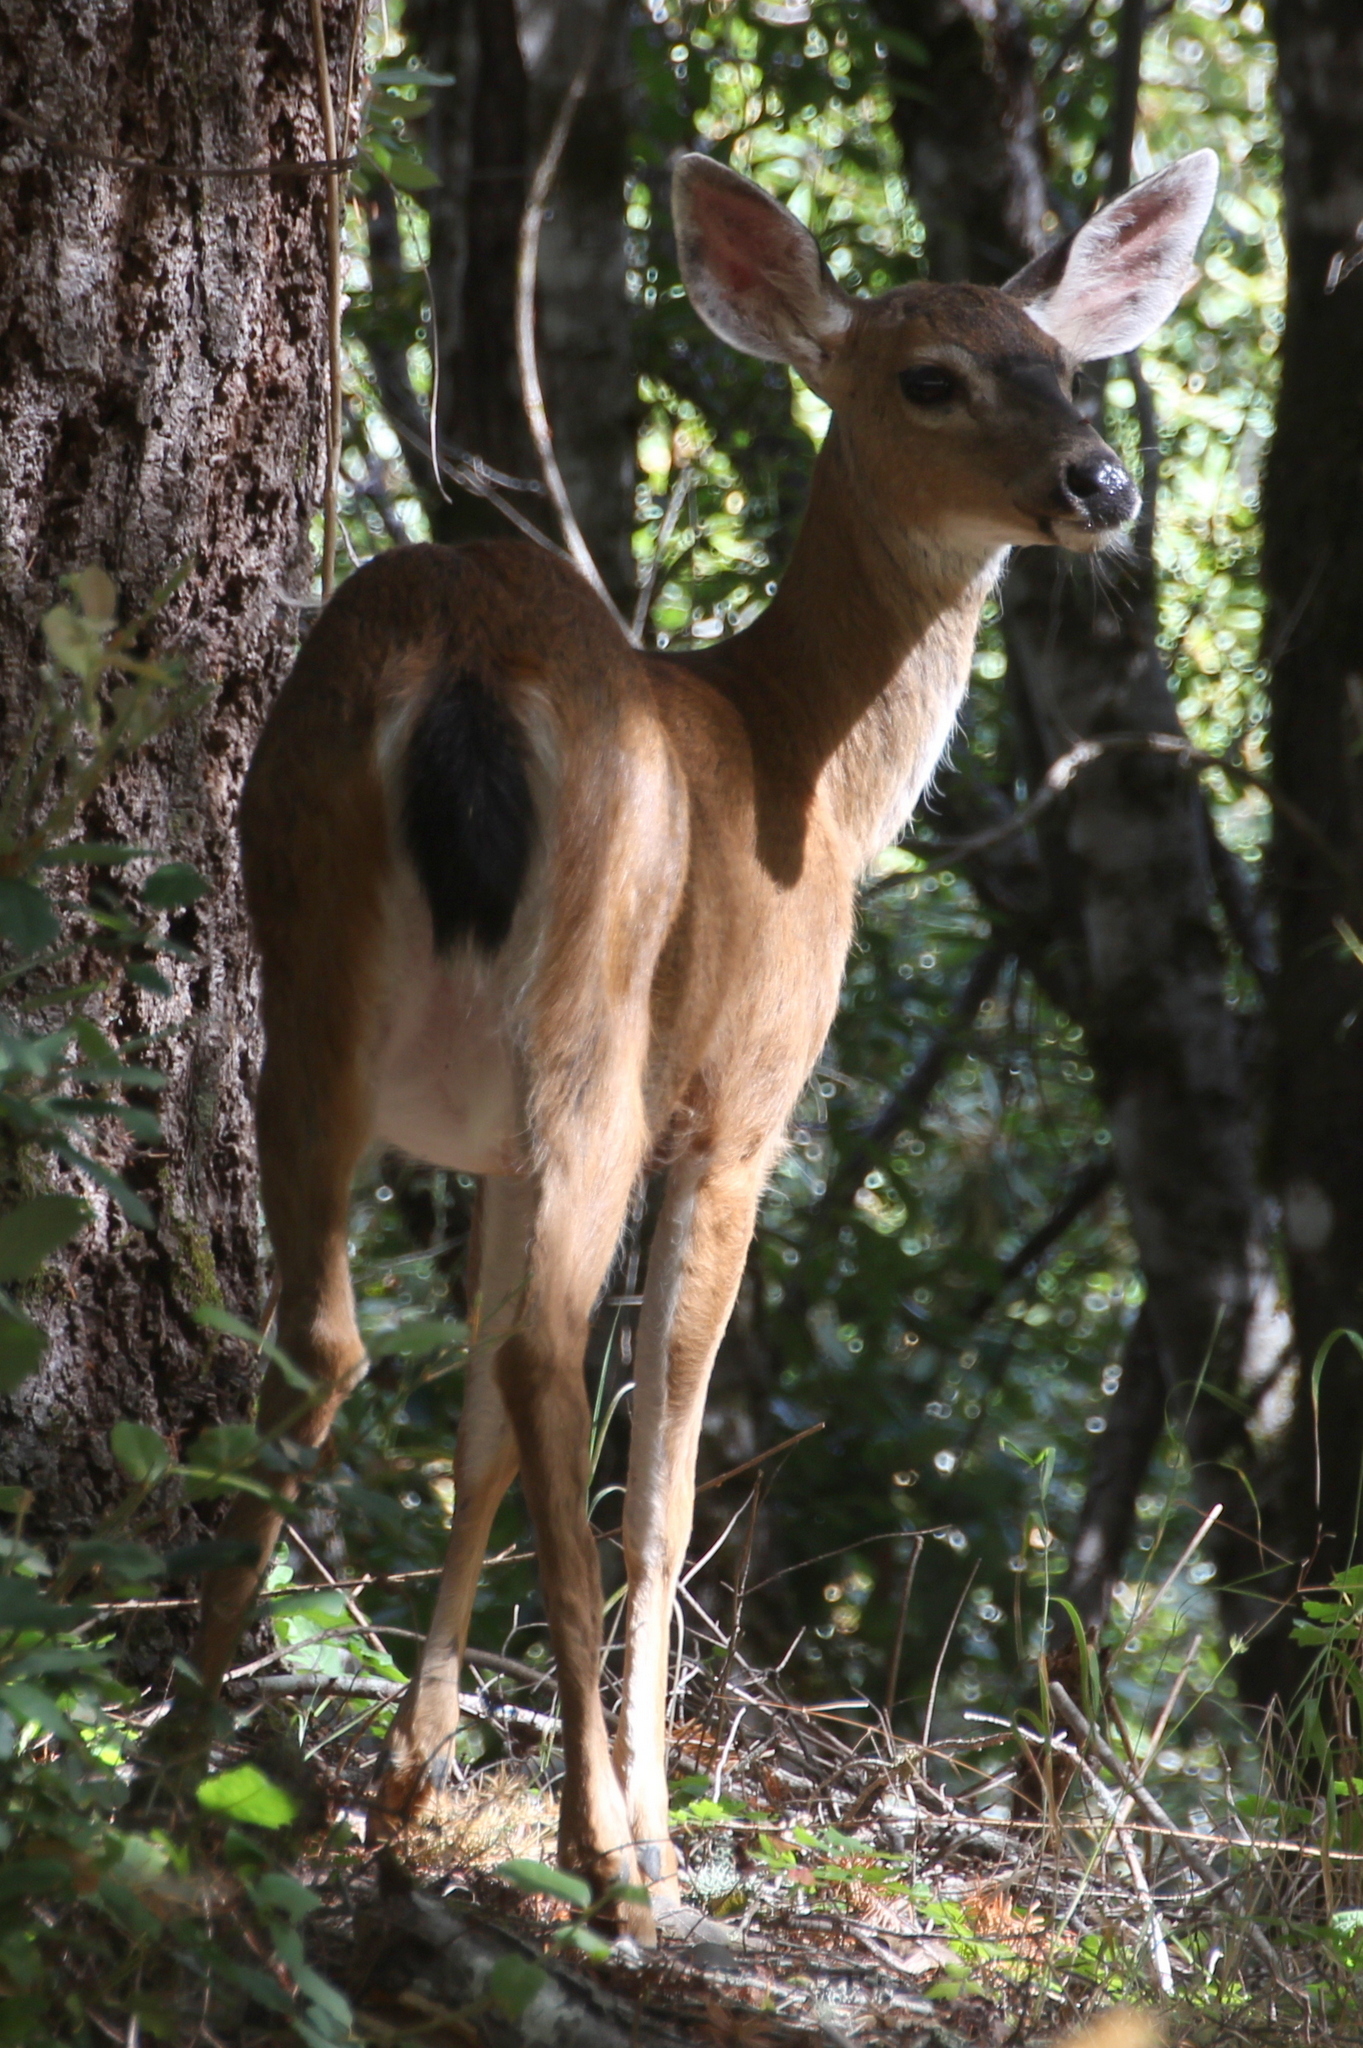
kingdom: Animalia
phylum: Chordata
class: Mammalia
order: Artiodactyla
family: Cervidae
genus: Odocoileus
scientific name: Odocoileus hemionus
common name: Mule deer
